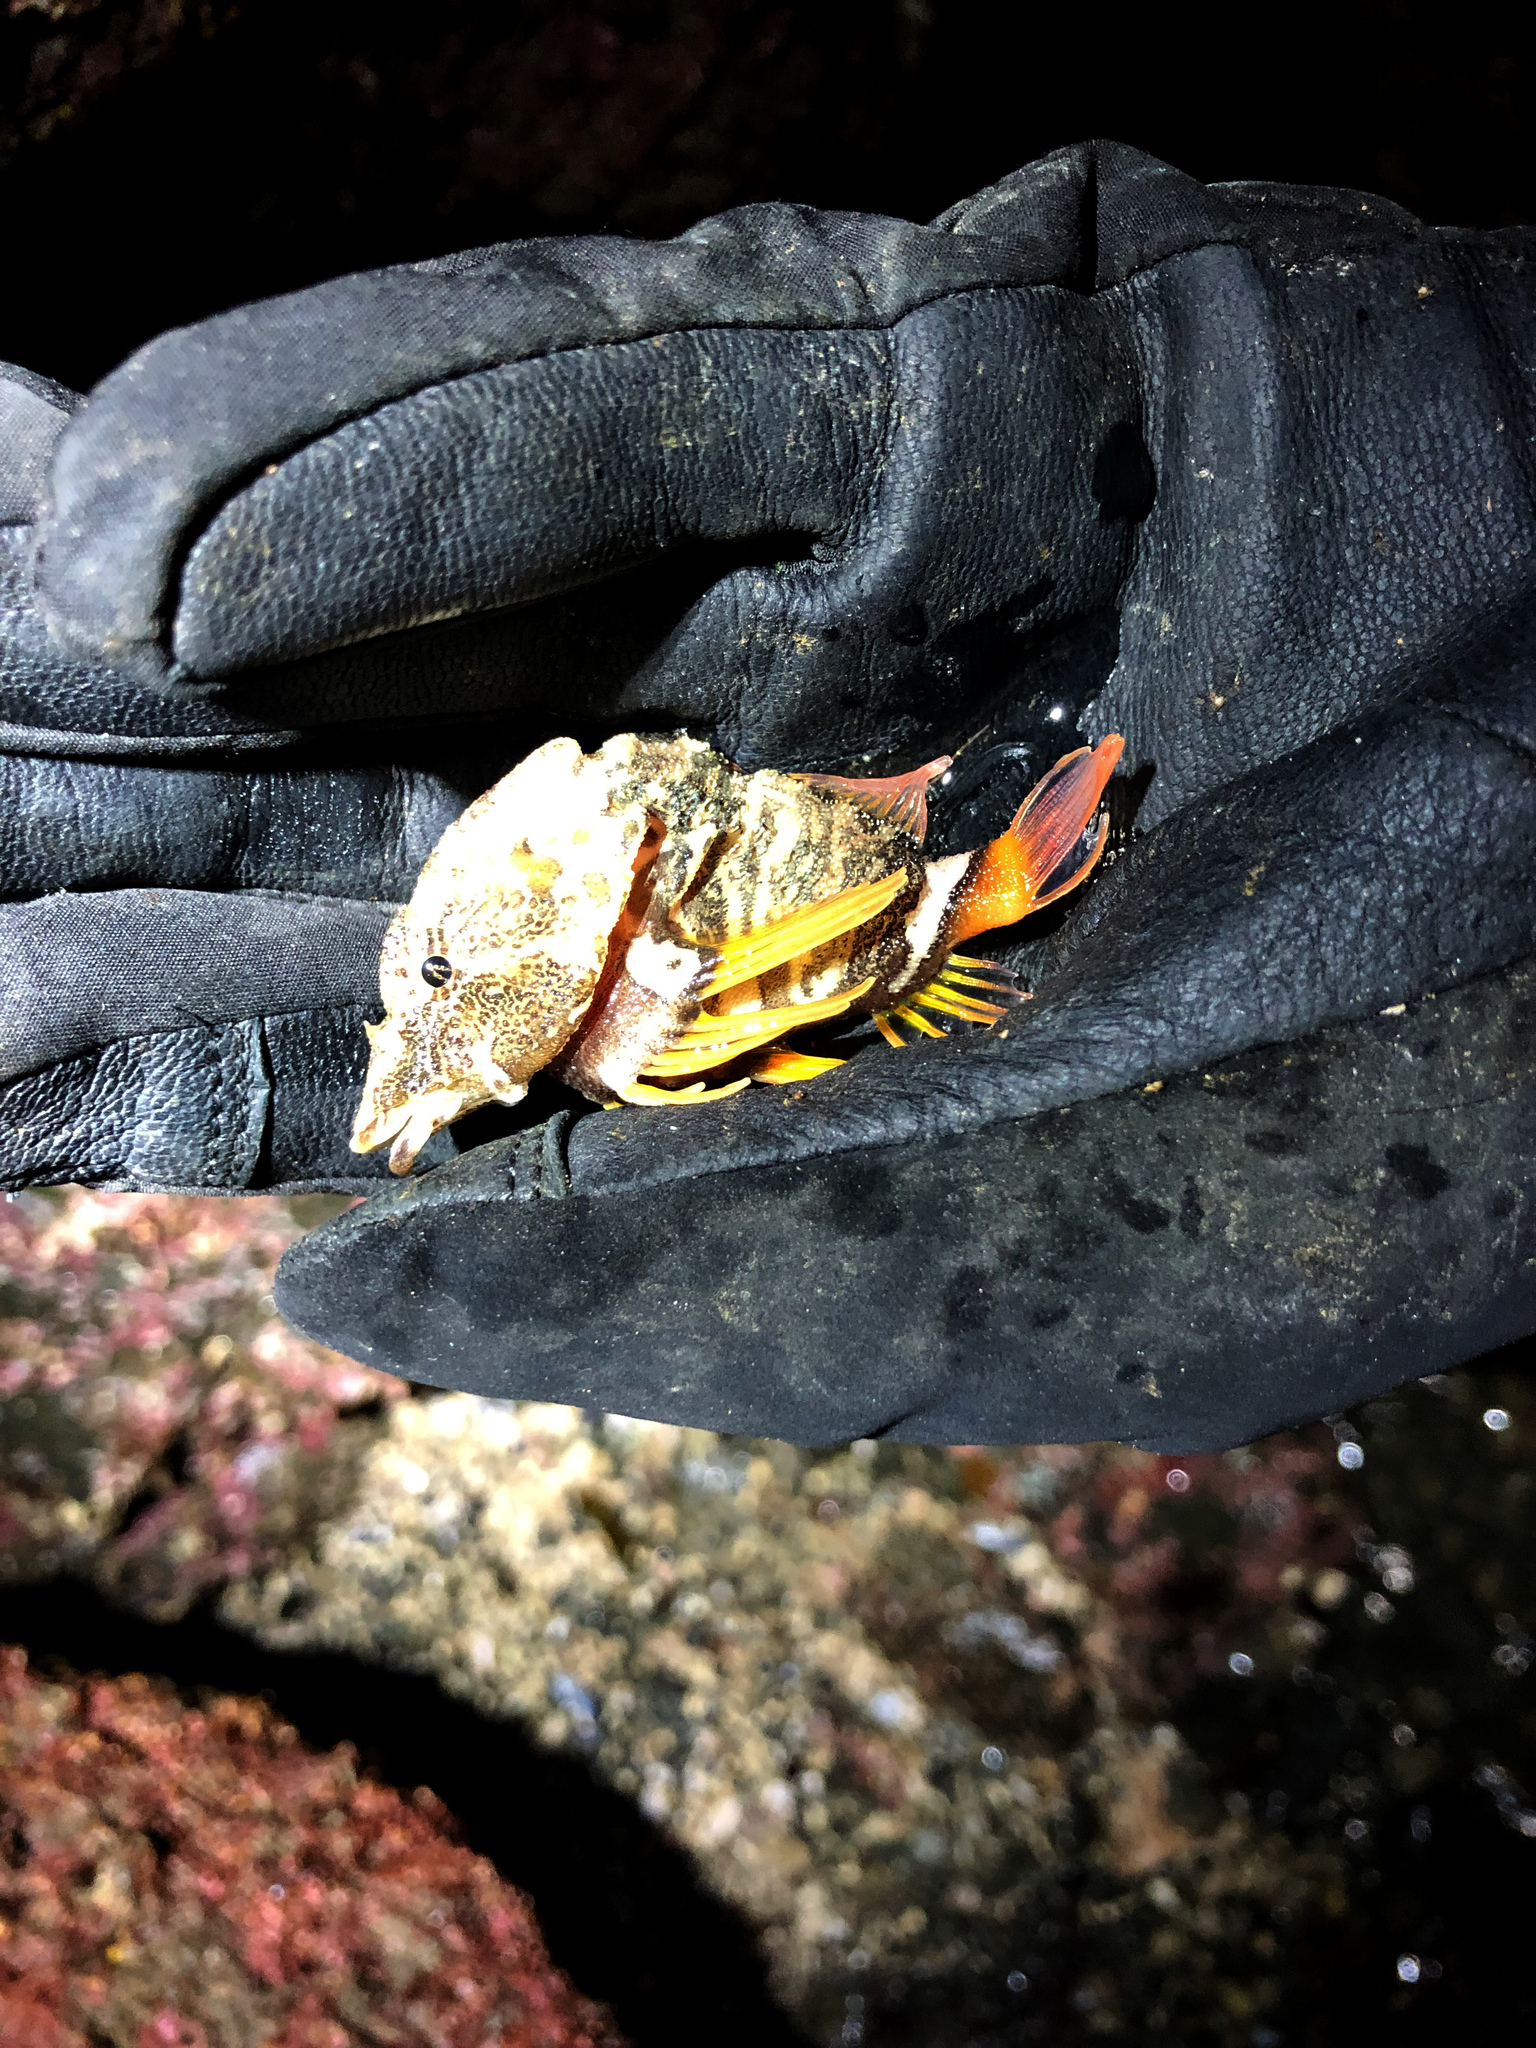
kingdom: Animalia
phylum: Chordata
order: Scorpaeniformes
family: Rhamphocottidae
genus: Rhamphocottus
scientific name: Rhamphocottus richardsonii
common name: Grunt sculpin
